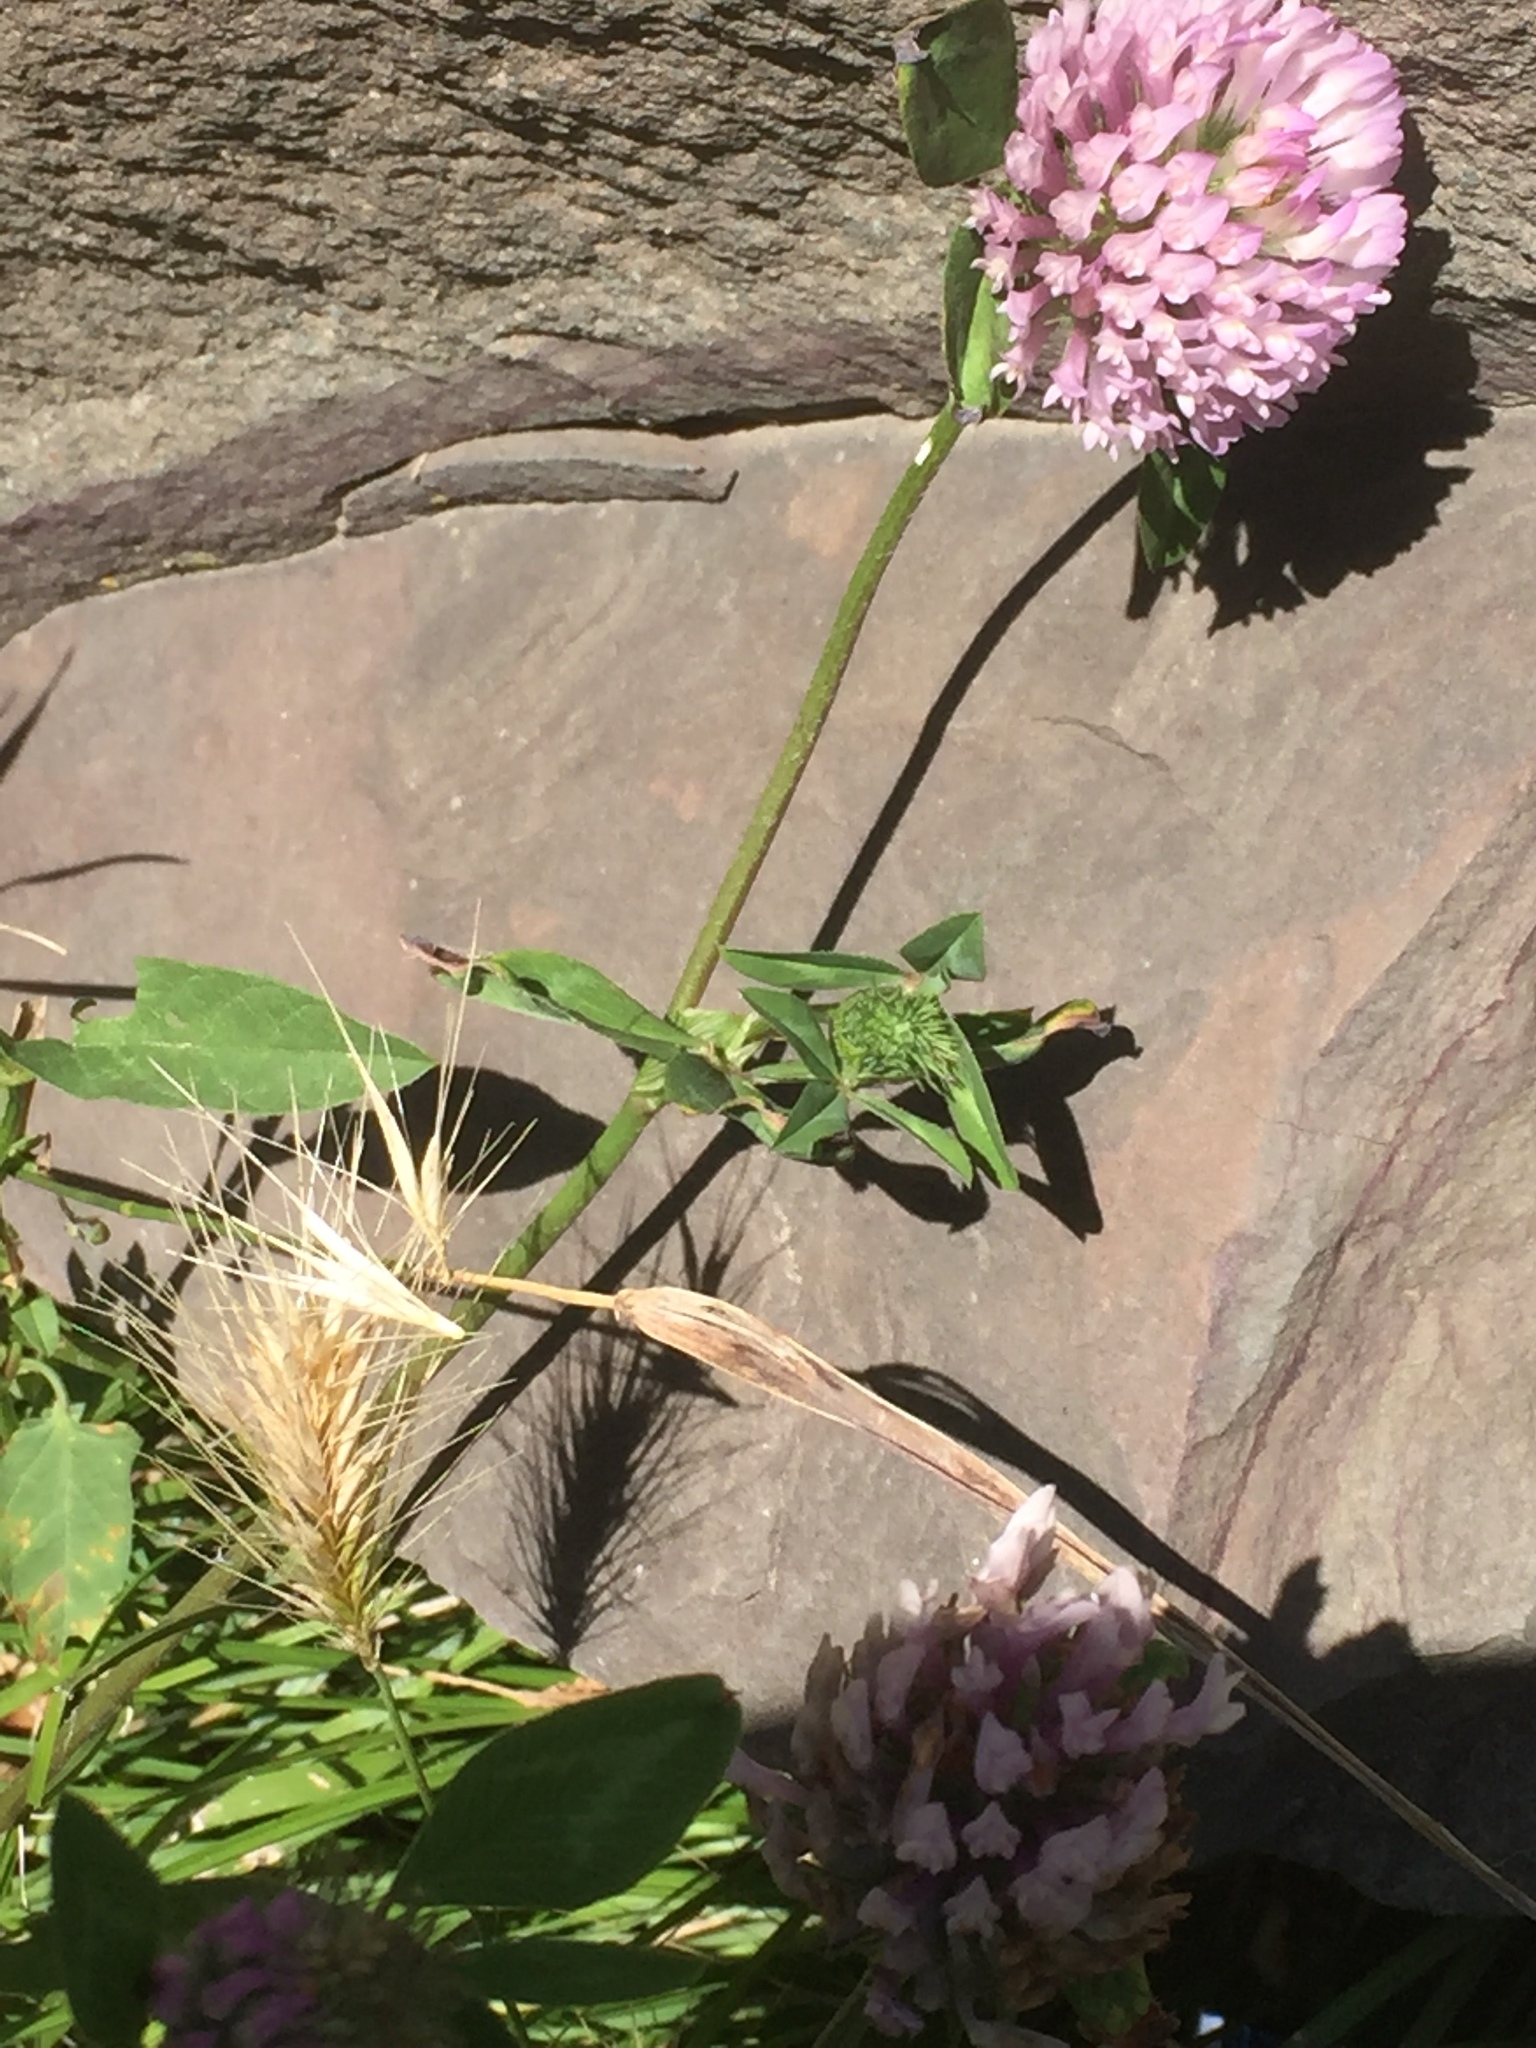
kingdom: Plantae
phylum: Tracheophyta
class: Magnoliopsida
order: Fabales
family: Fabaceae
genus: Trifolium
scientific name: Trifolium pratense
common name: Red clover
